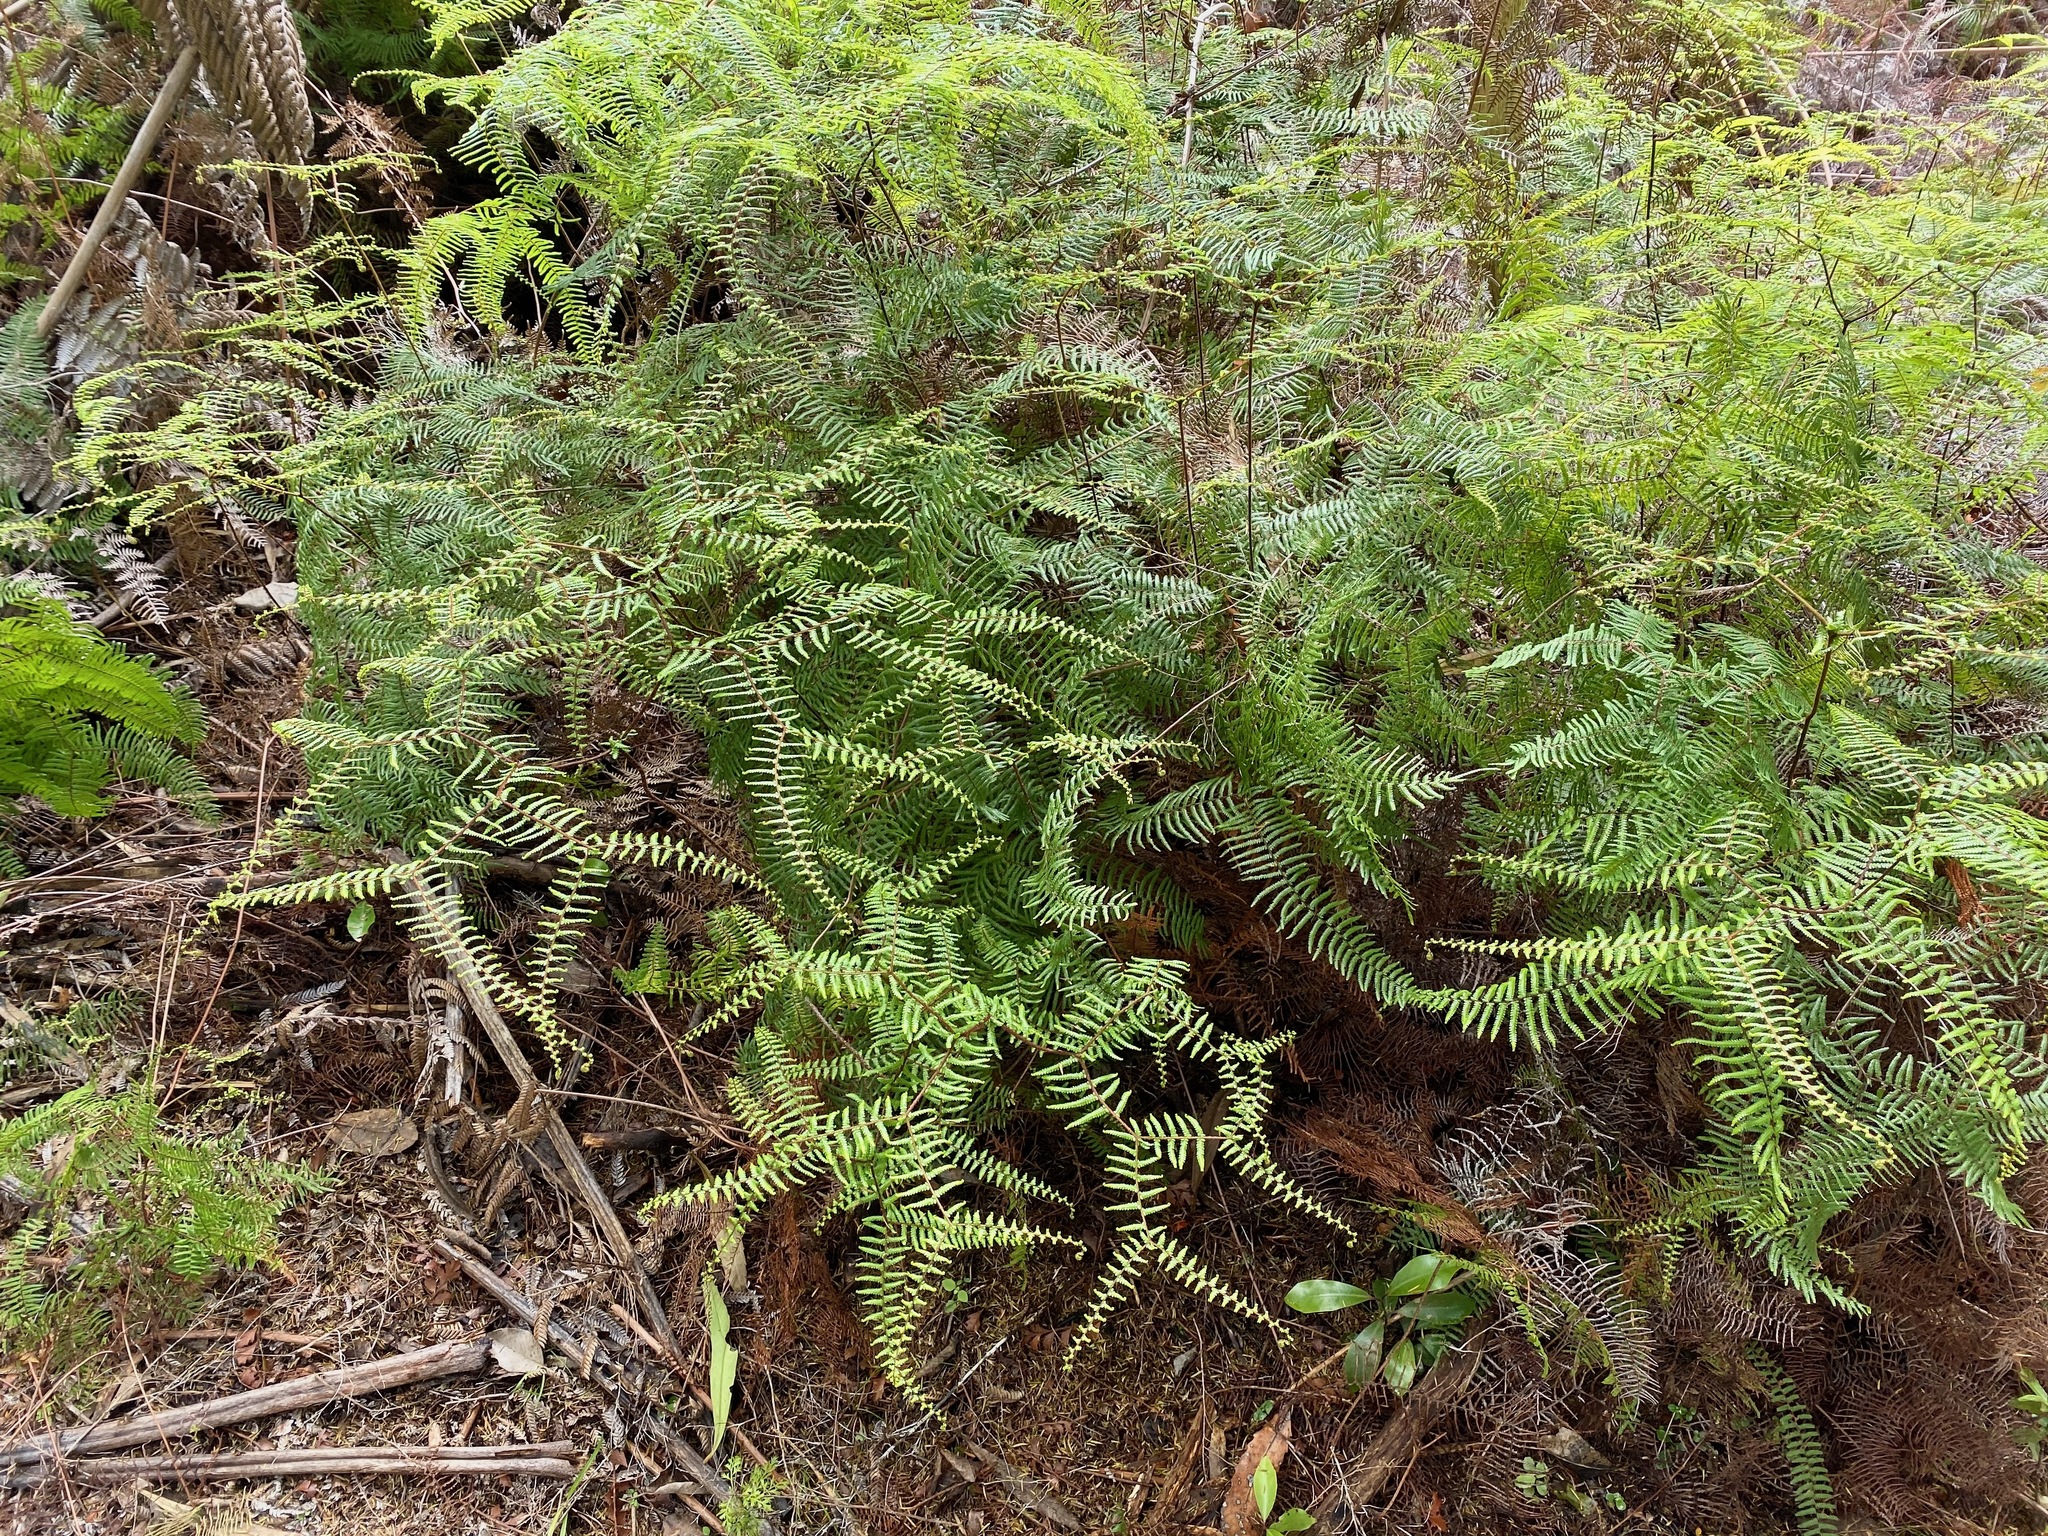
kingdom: Plantae
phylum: Tracheophyta
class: Polypodiopsida
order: Gleicheniales
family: Gleicheniaceae
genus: Gleichenia
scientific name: Gleichenia microphylla
